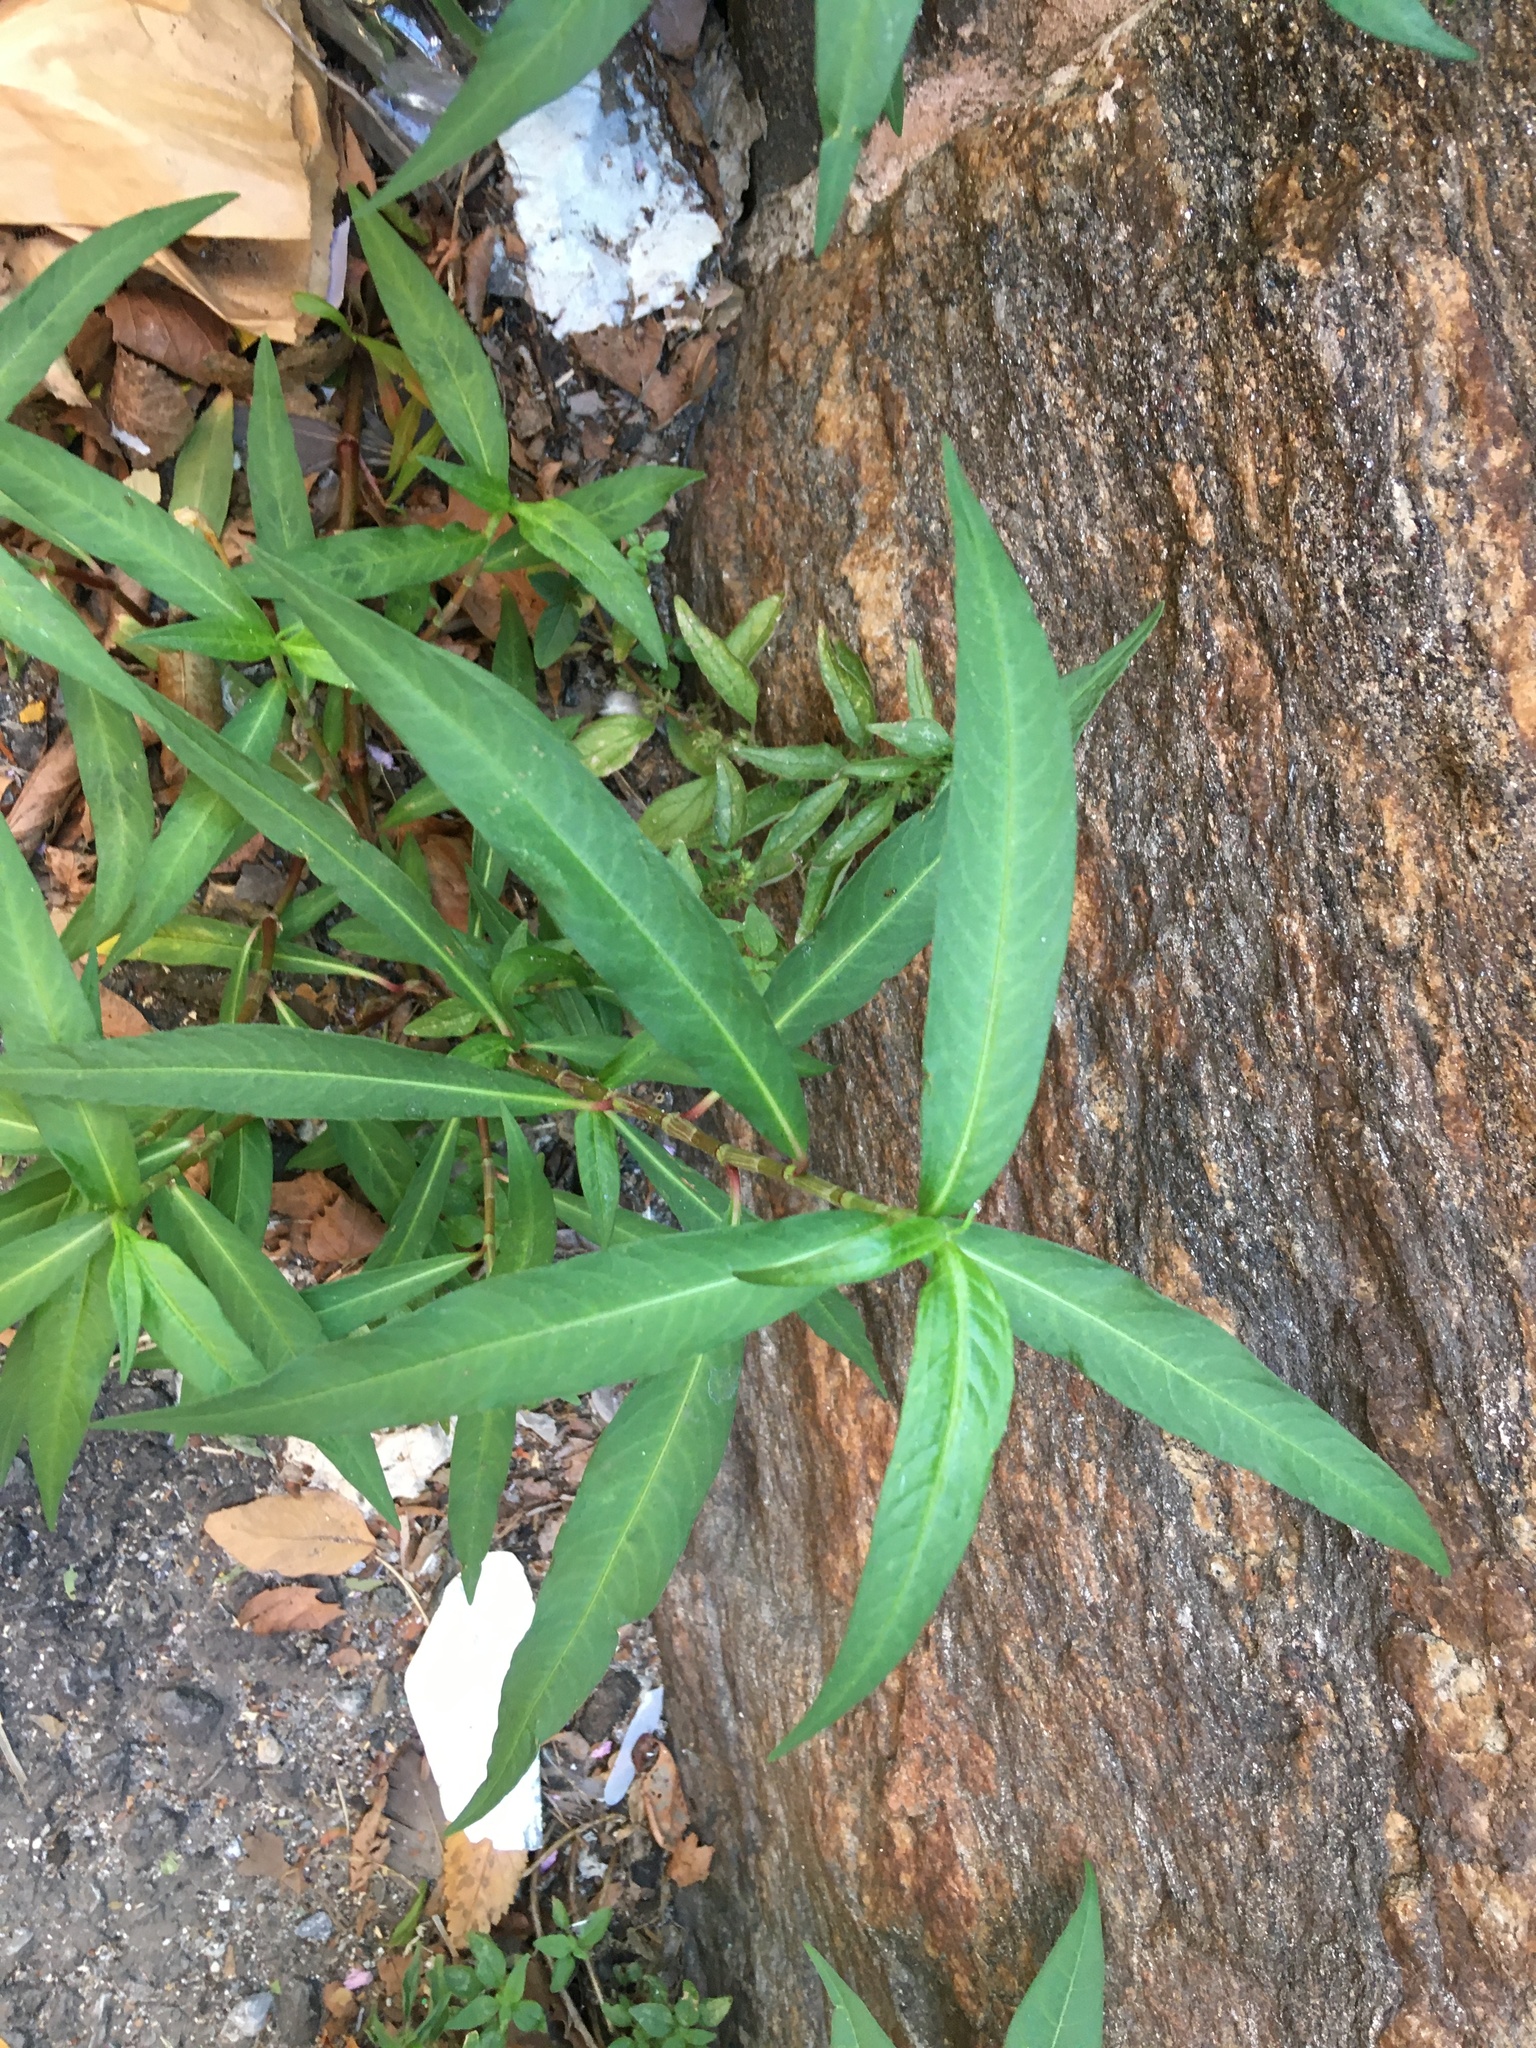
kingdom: Plantae
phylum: Tracheophyta
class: Magnoliopsida
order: Caryophyllales
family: Polygonaceae
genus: Persicaria
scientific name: Persicaria minor
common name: Small water-pepper
